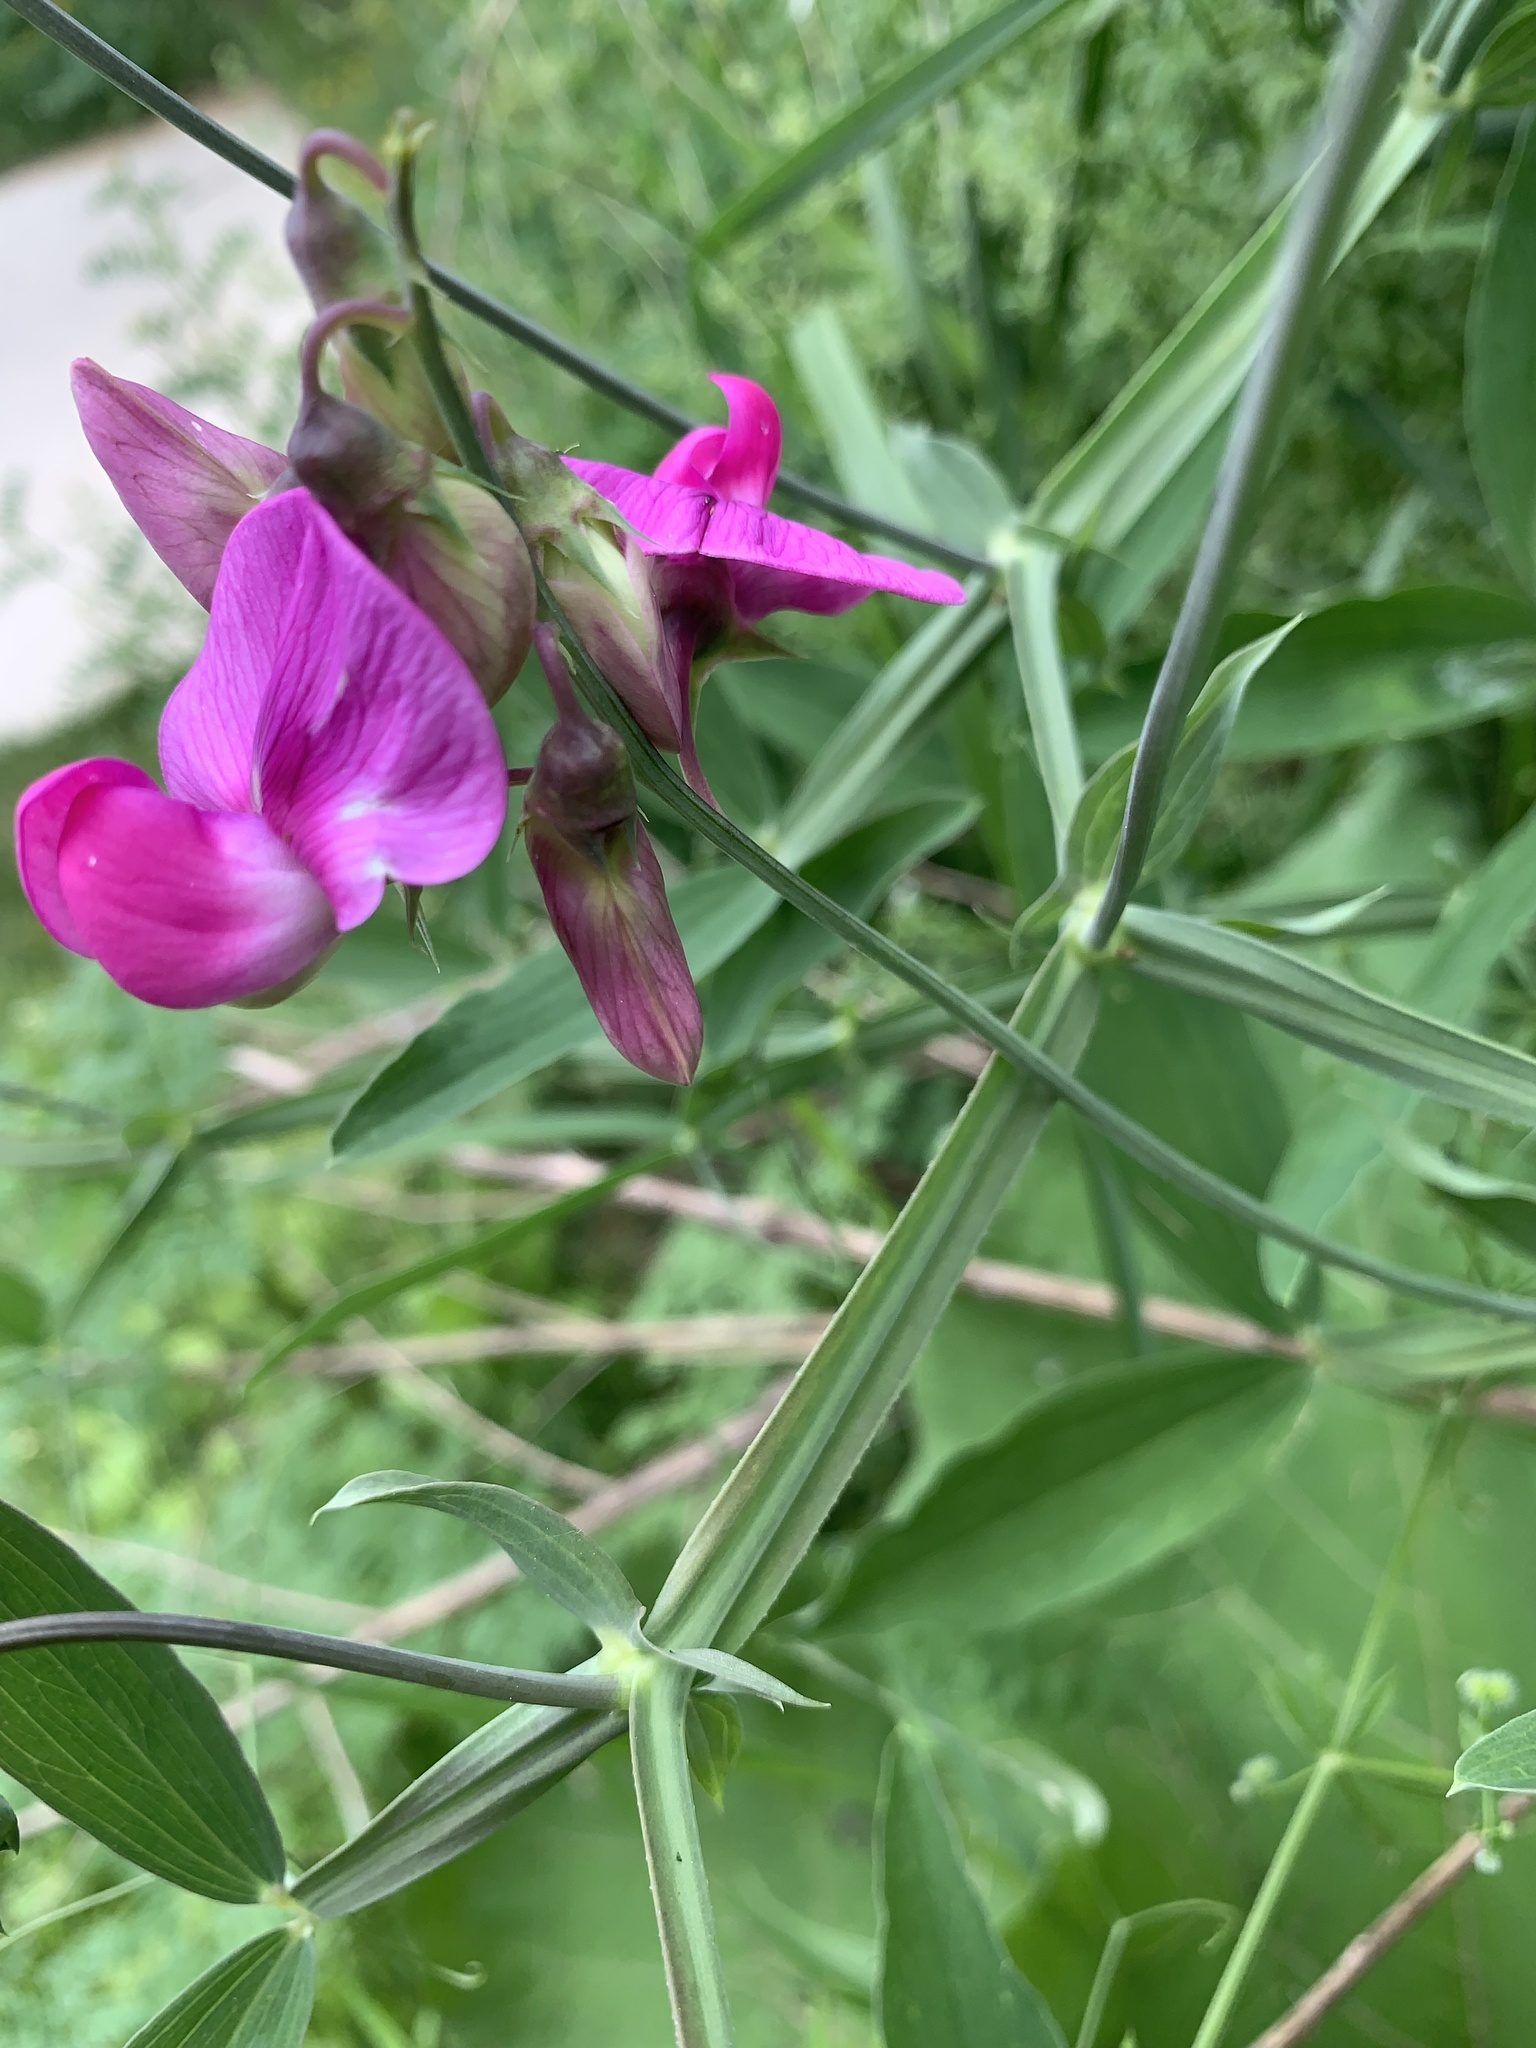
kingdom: Plantae
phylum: Tracheophyta
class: Magnoliopsida
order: Fabales
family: Fabaceae
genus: Lathyrus
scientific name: Lathyrus latifolius
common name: Perennial pea
